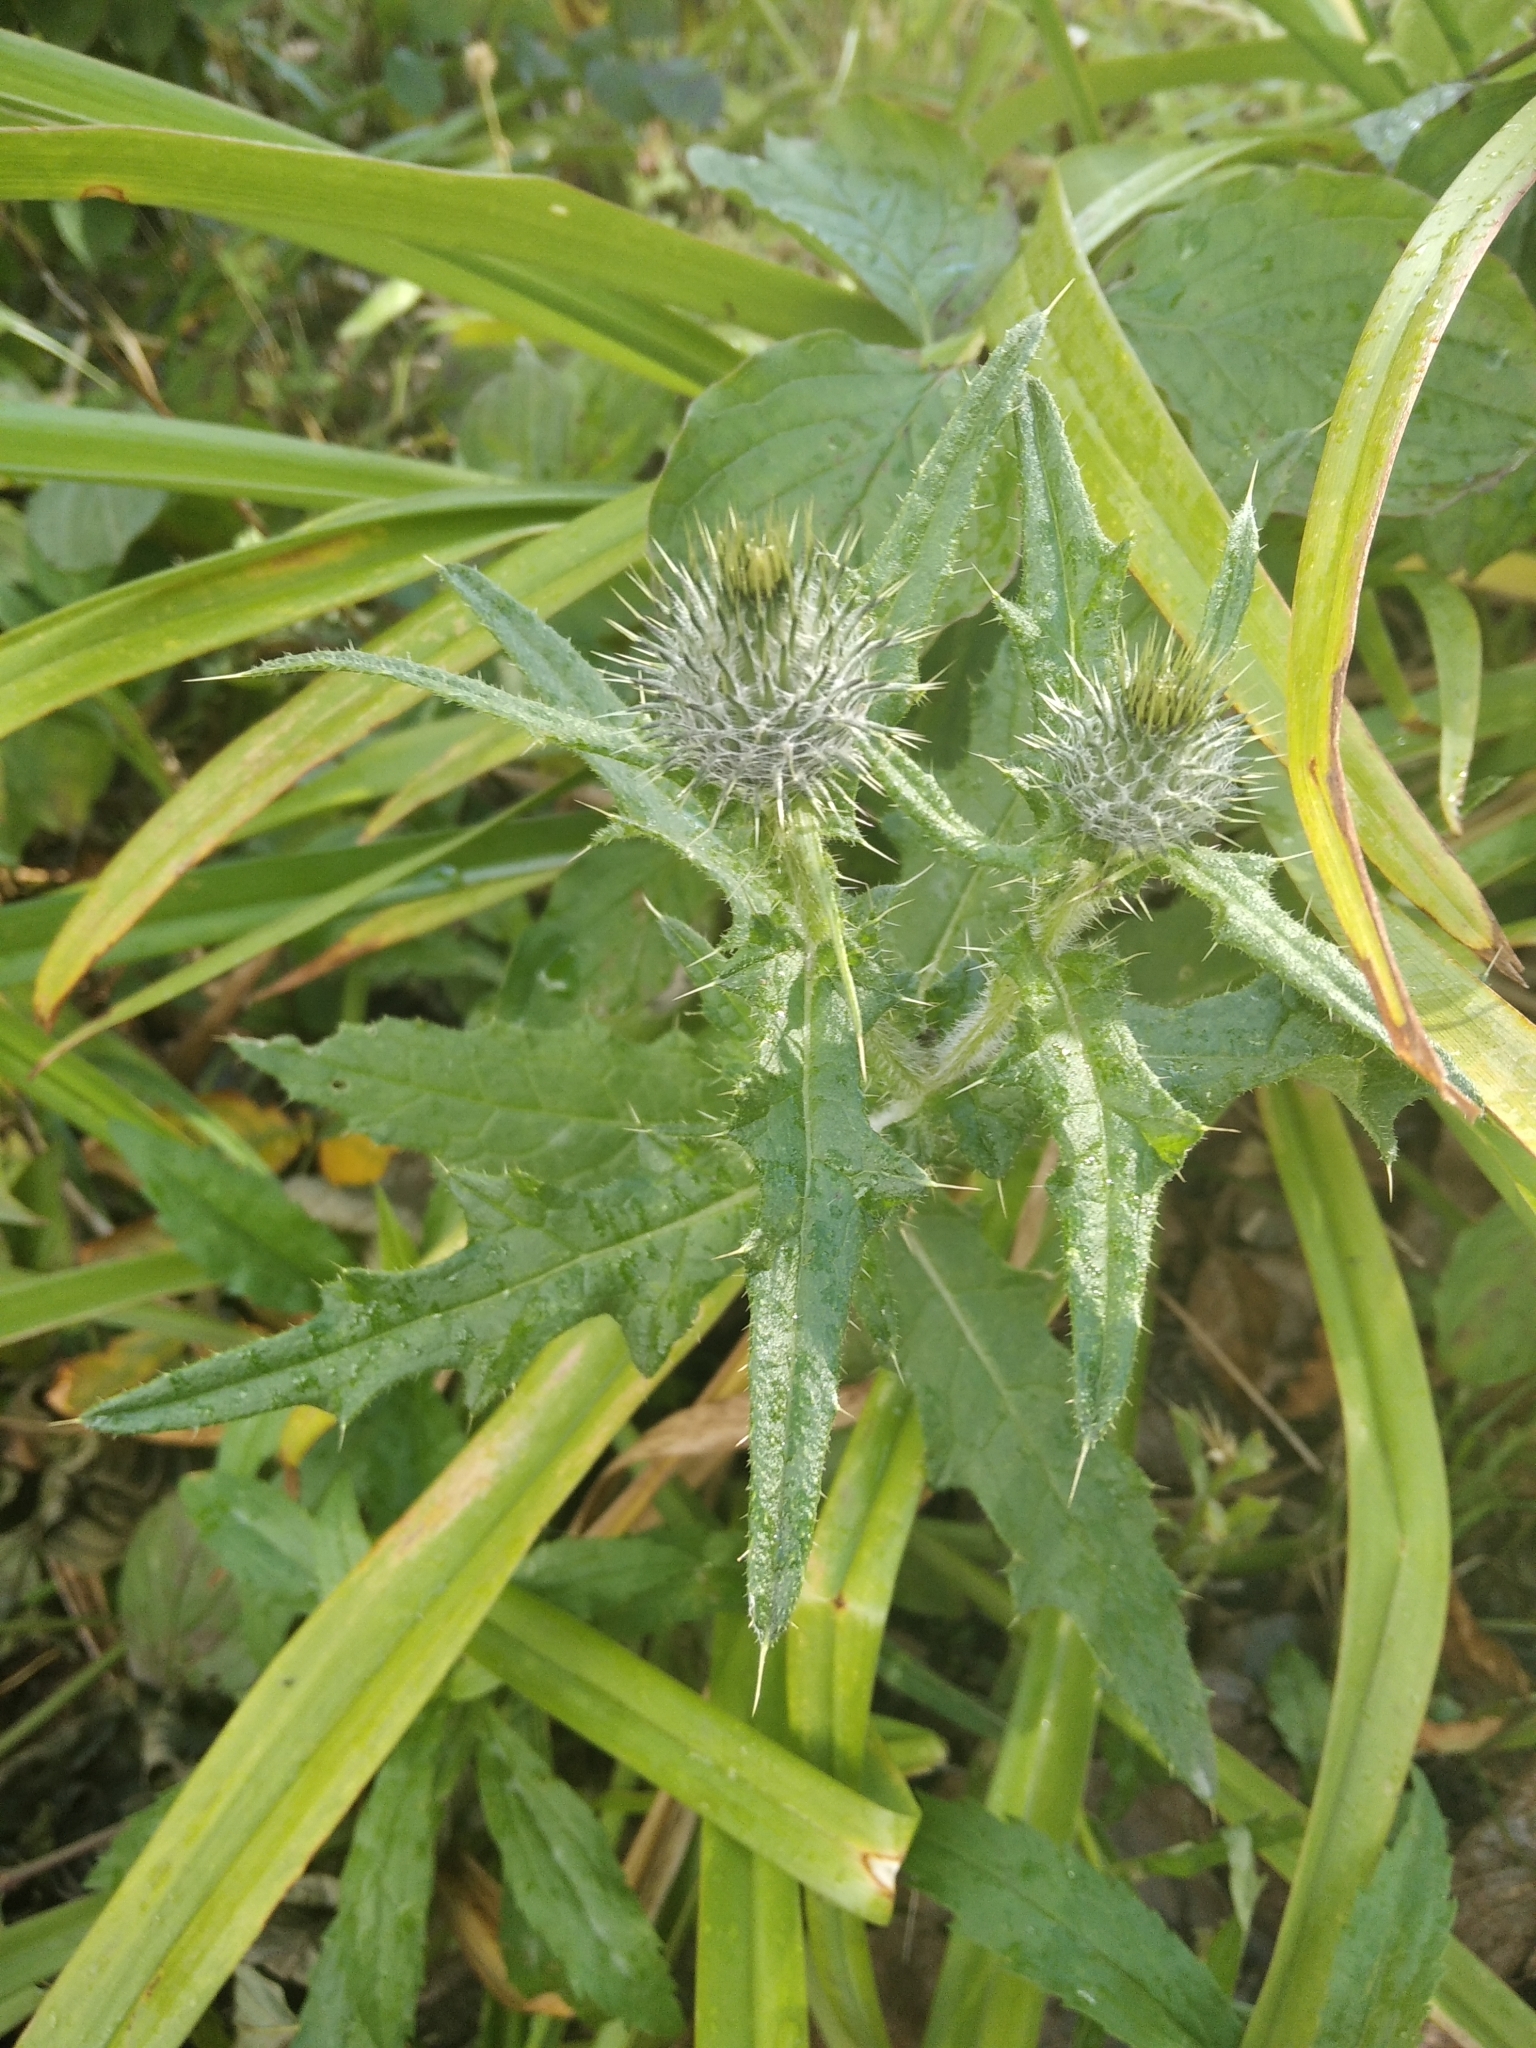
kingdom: Plantae
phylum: Tracheophyta
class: Magnoliopsida
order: Asterales
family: Asteraceae
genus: Cirsium
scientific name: Cirsium vulgare
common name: Bull thistle
